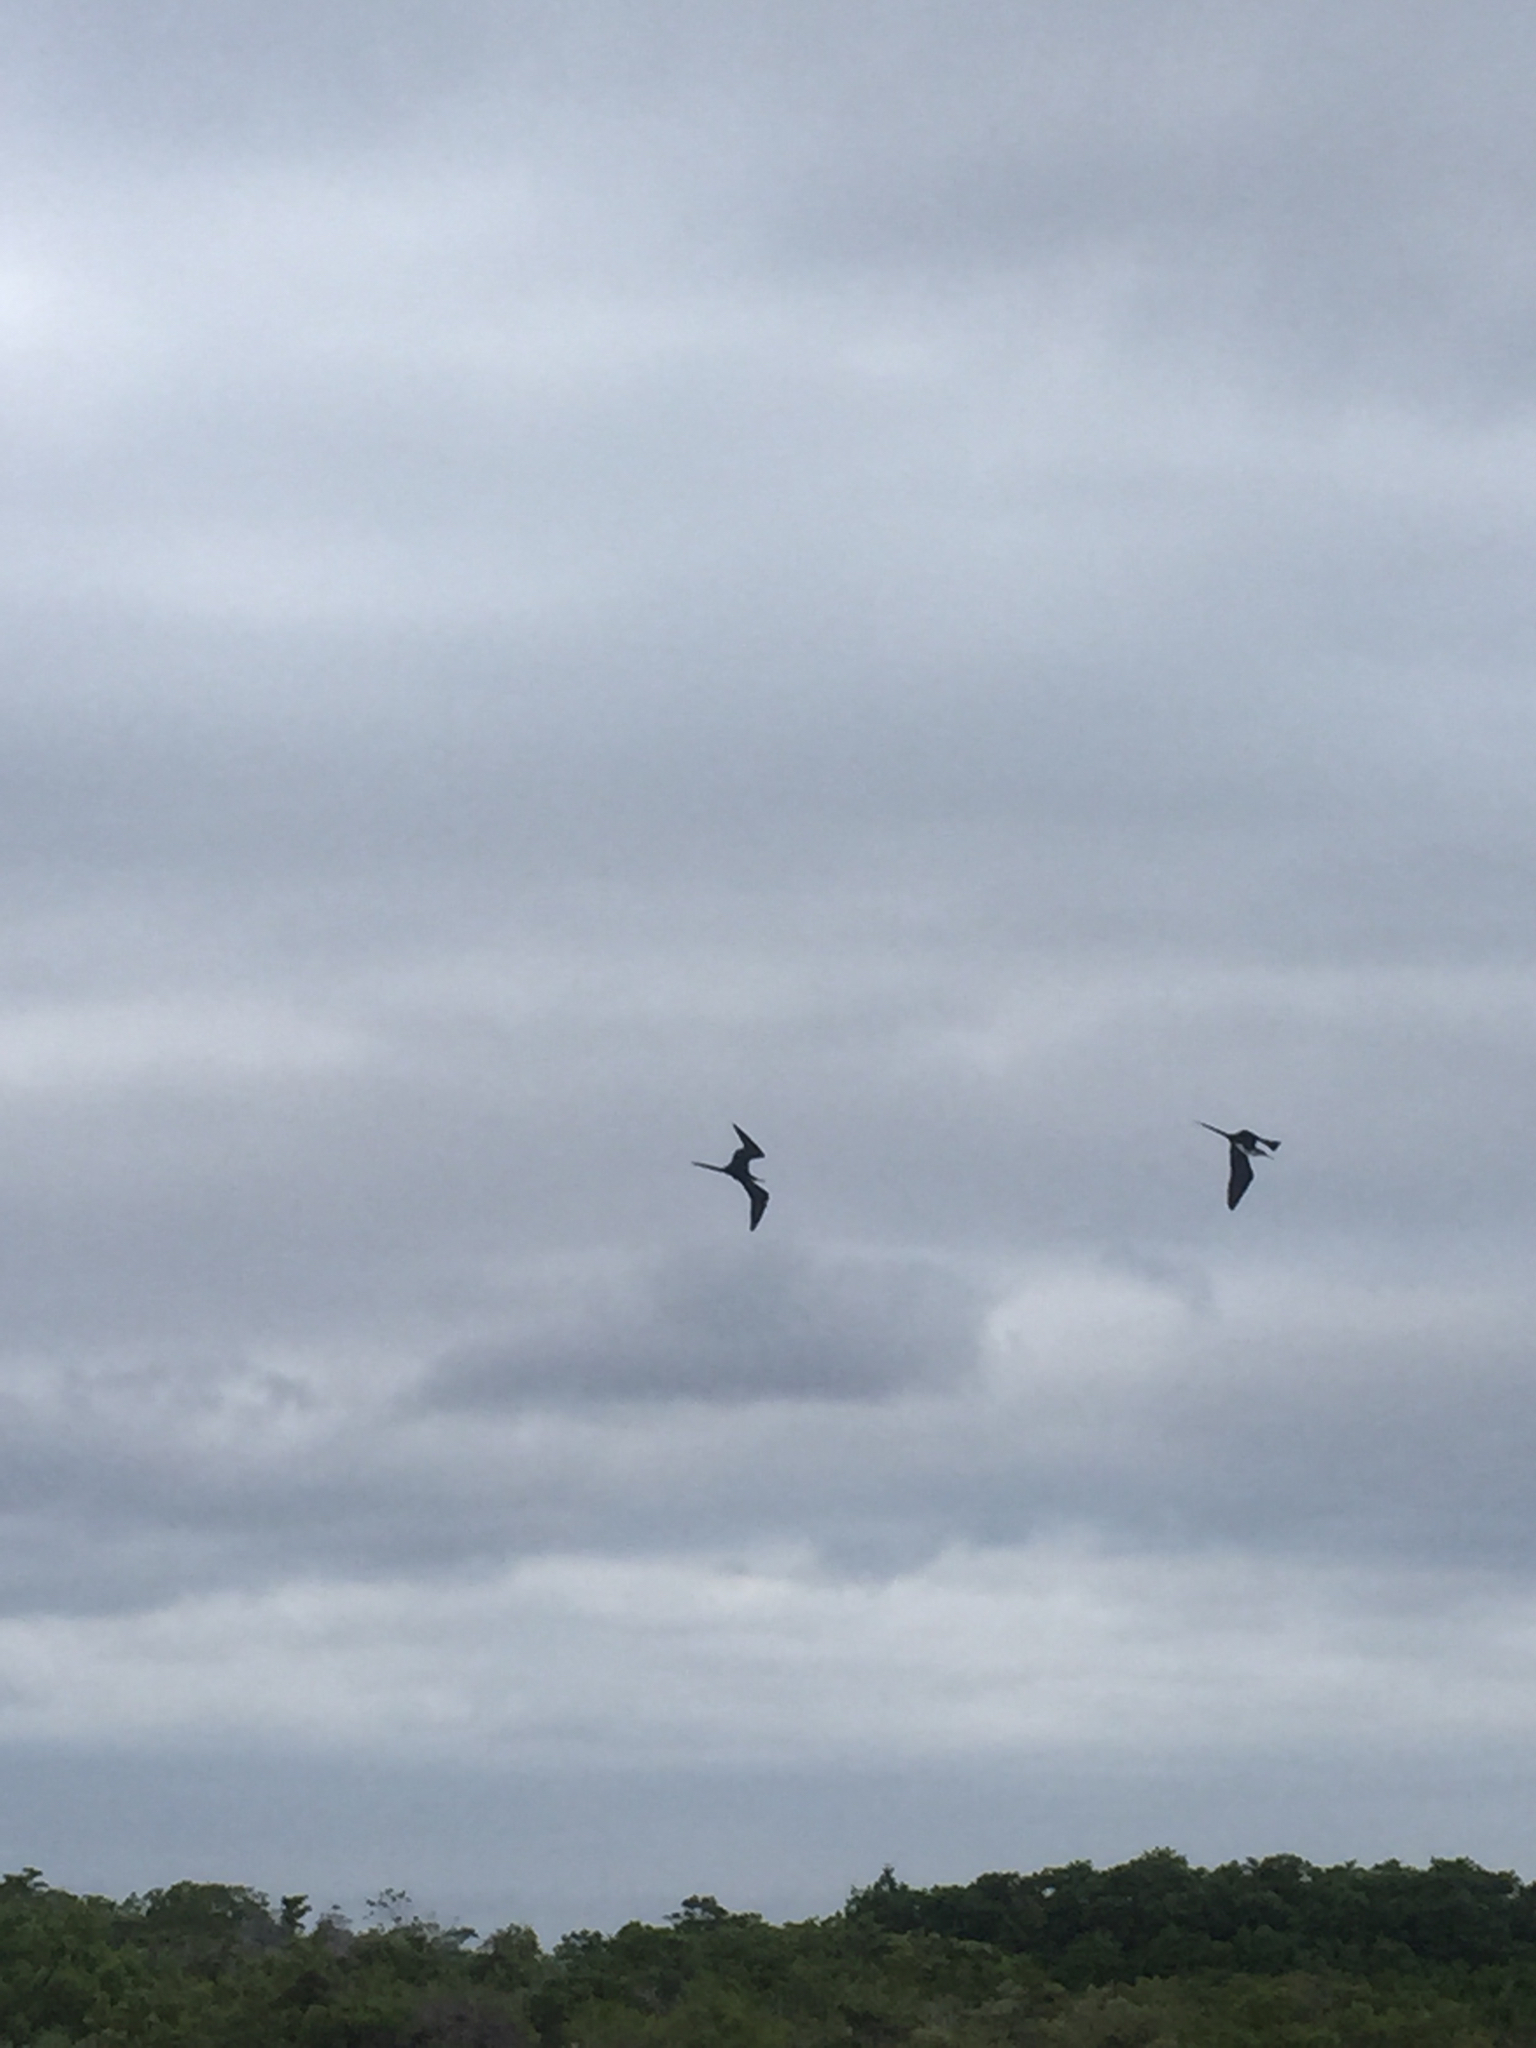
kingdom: Animalia
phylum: Chordata
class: Aves
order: Suliformes
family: Fregatidae
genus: Fregata
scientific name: Fregata magnificens
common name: Magnificent frigatebird
